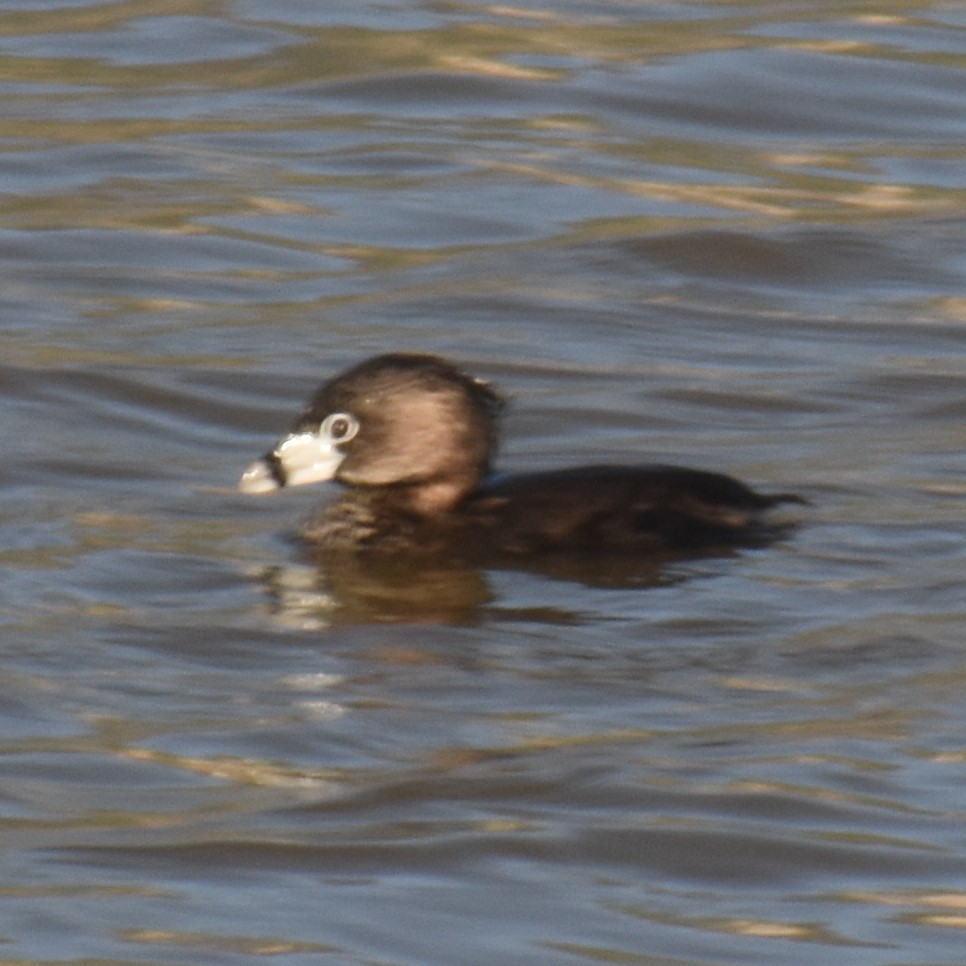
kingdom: Animalia
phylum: Chordata
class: Aves
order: Podicipediformes
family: Podicipedidae
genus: Podilymbus
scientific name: Podilymbus podiceps
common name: Pied-billed grebe
